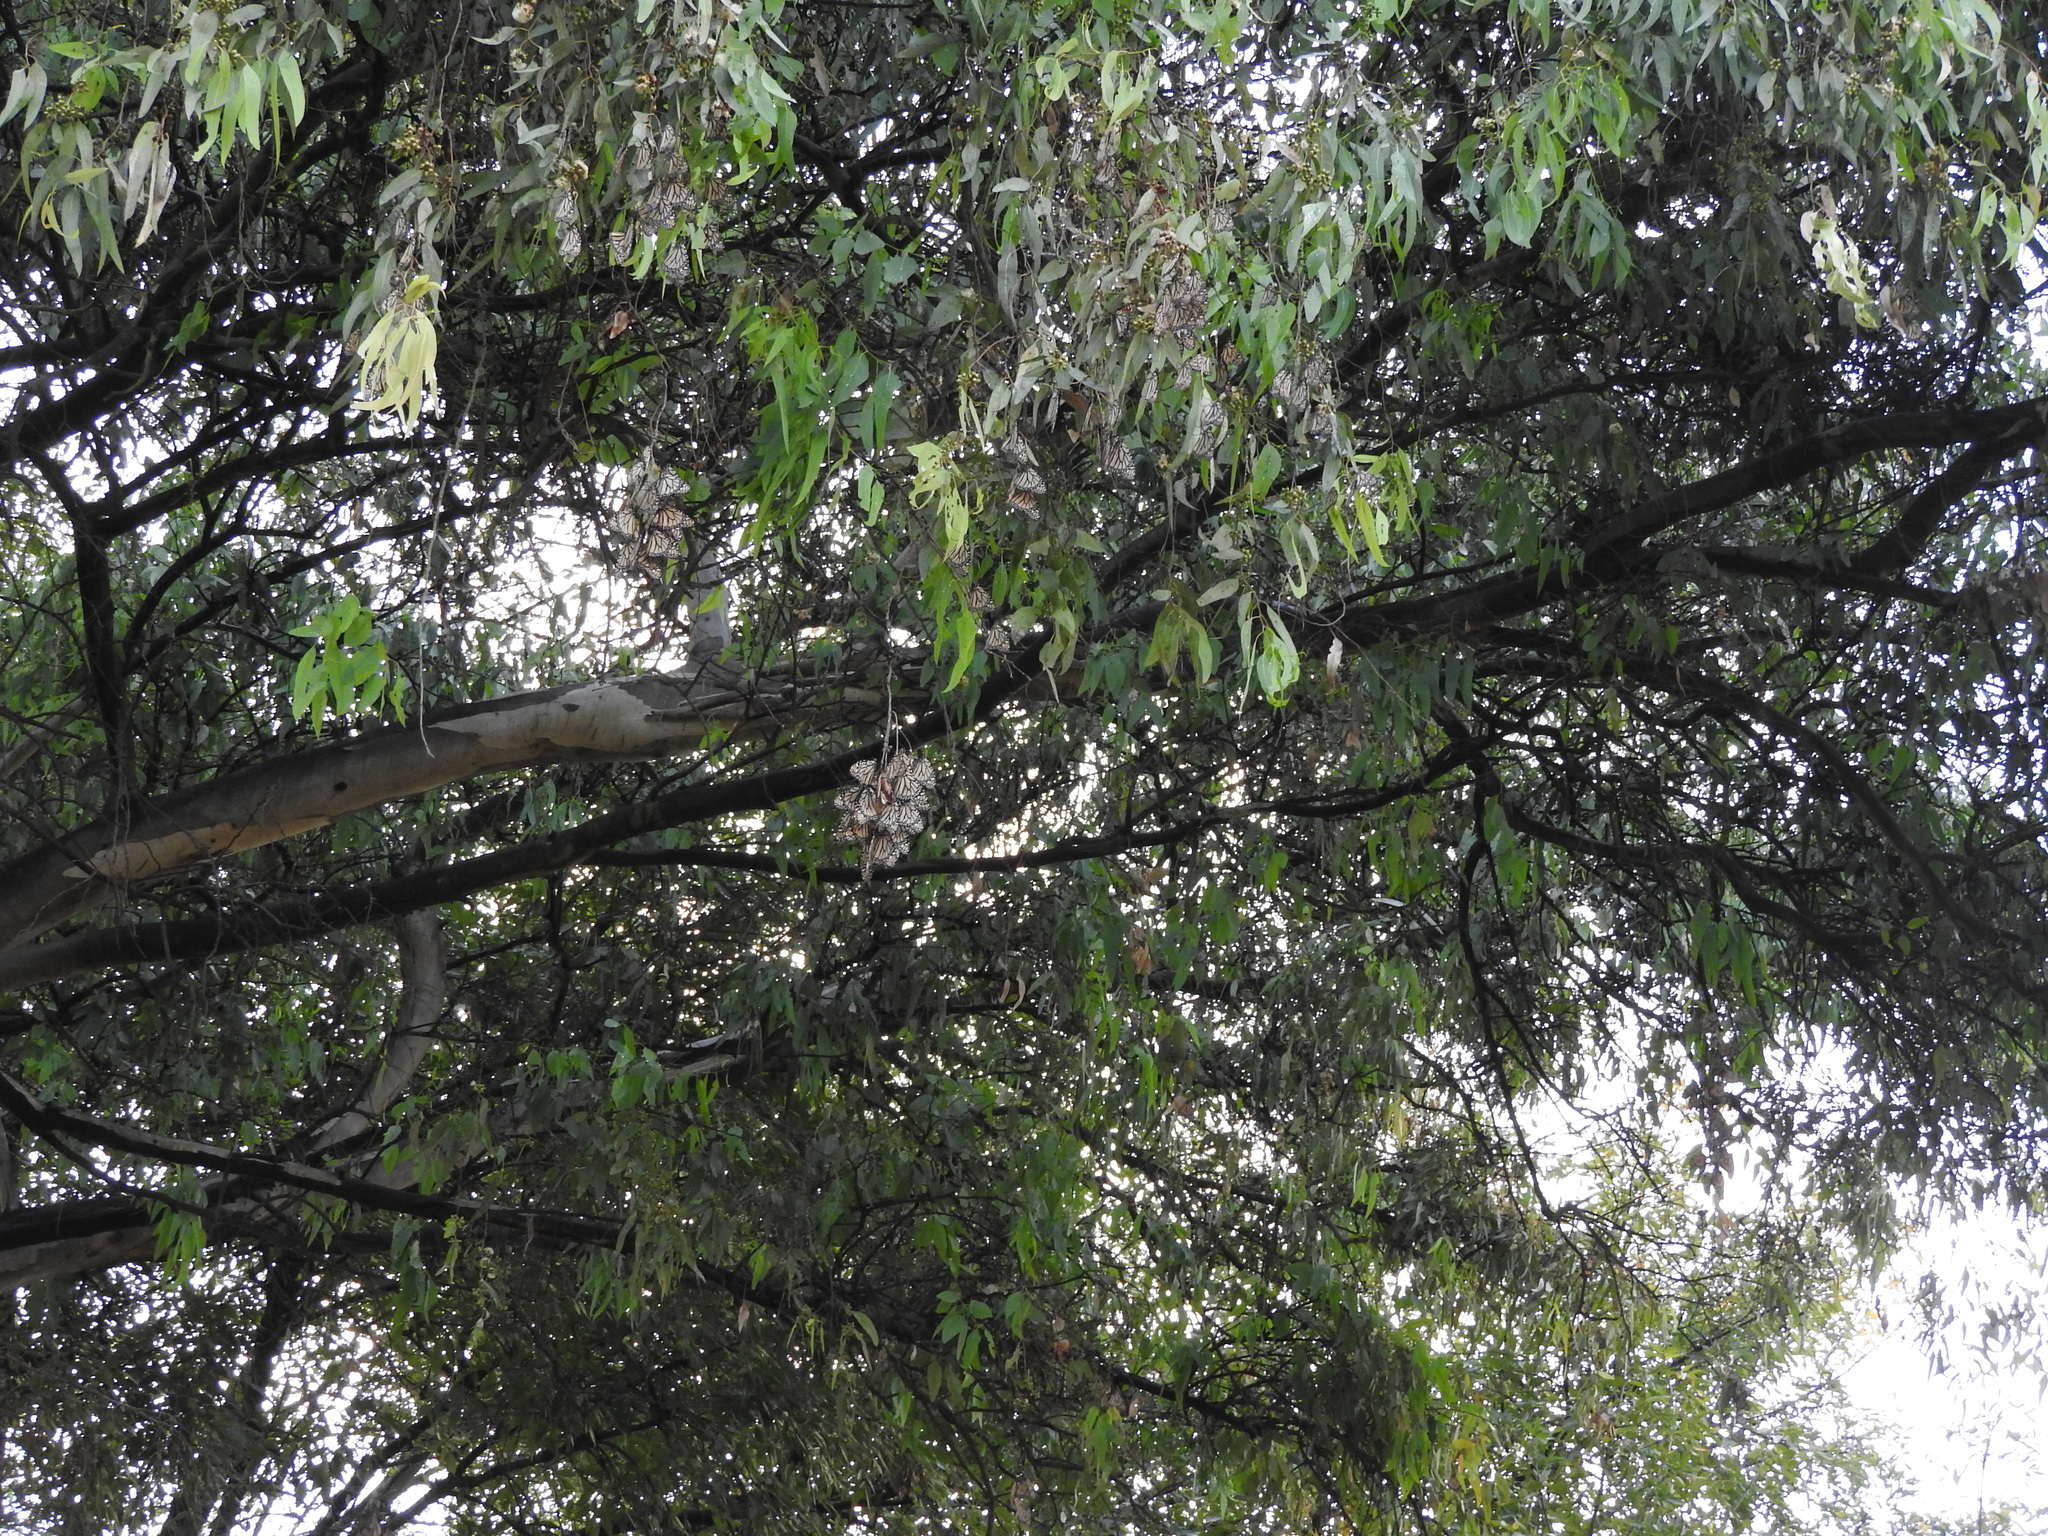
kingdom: Animalia
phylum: Arthropoda
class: Insecta
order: Lepidoptera
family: Nymphalidae
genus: Danaus
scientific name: Danaus plexippus
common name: Monarch
